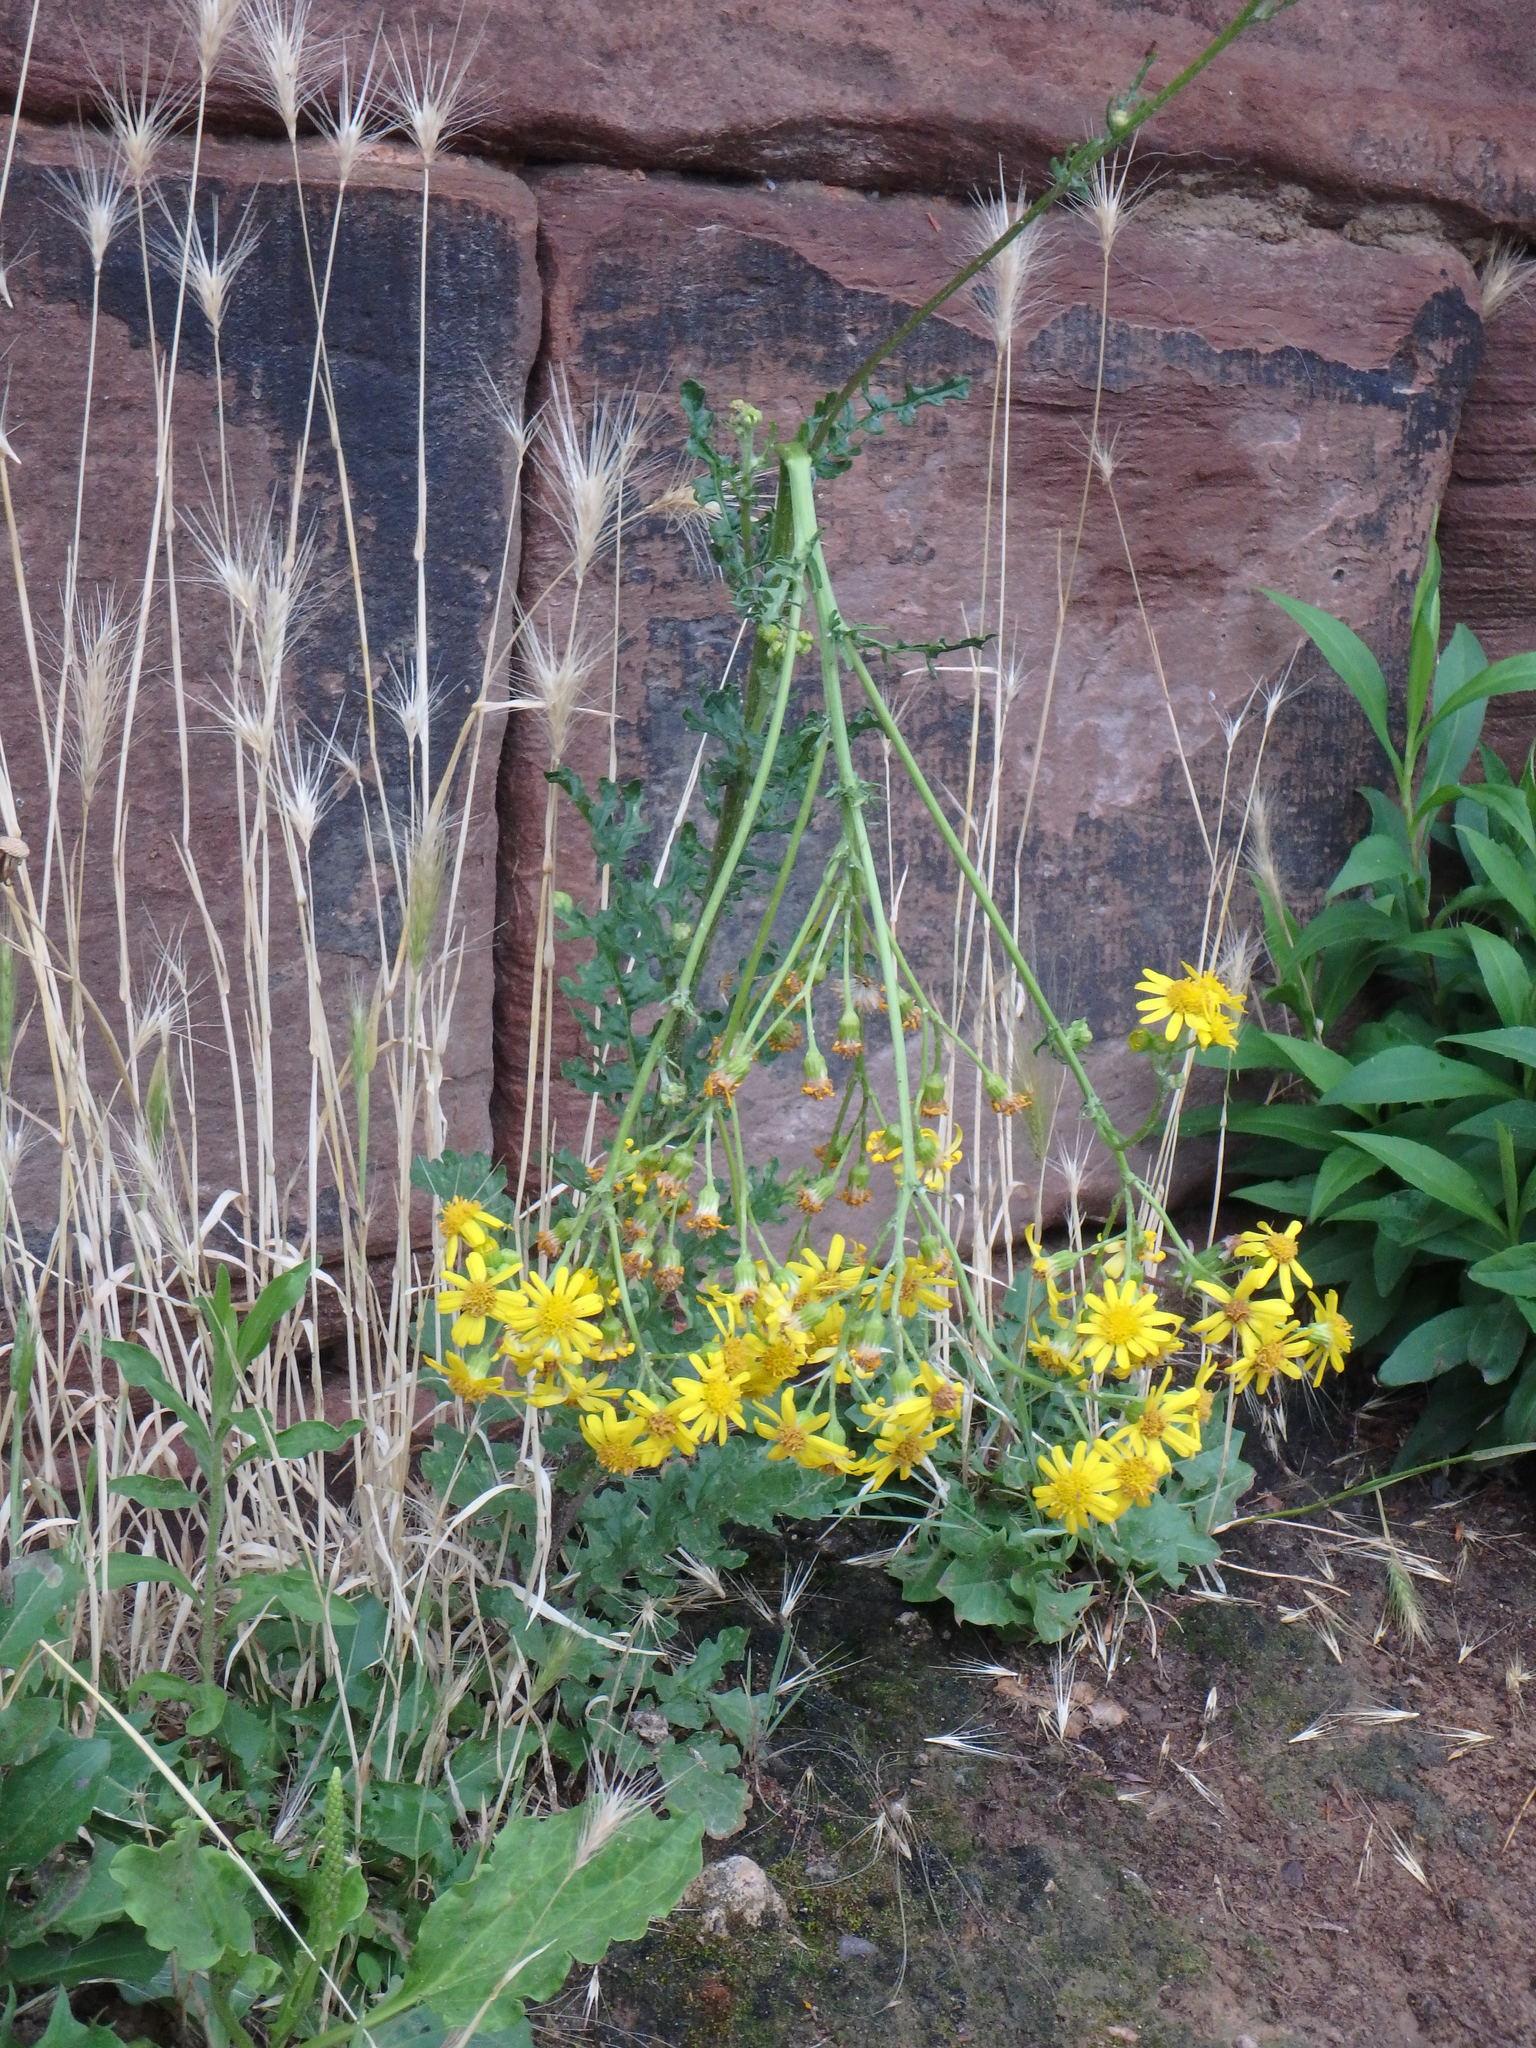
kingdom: Plantae
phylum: Tracheophyta
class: Magnoliopsida
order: Asterales
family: Asteraceae
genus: Jacobaea
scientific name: Jacobaea vulgaris
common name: Stinking willie
